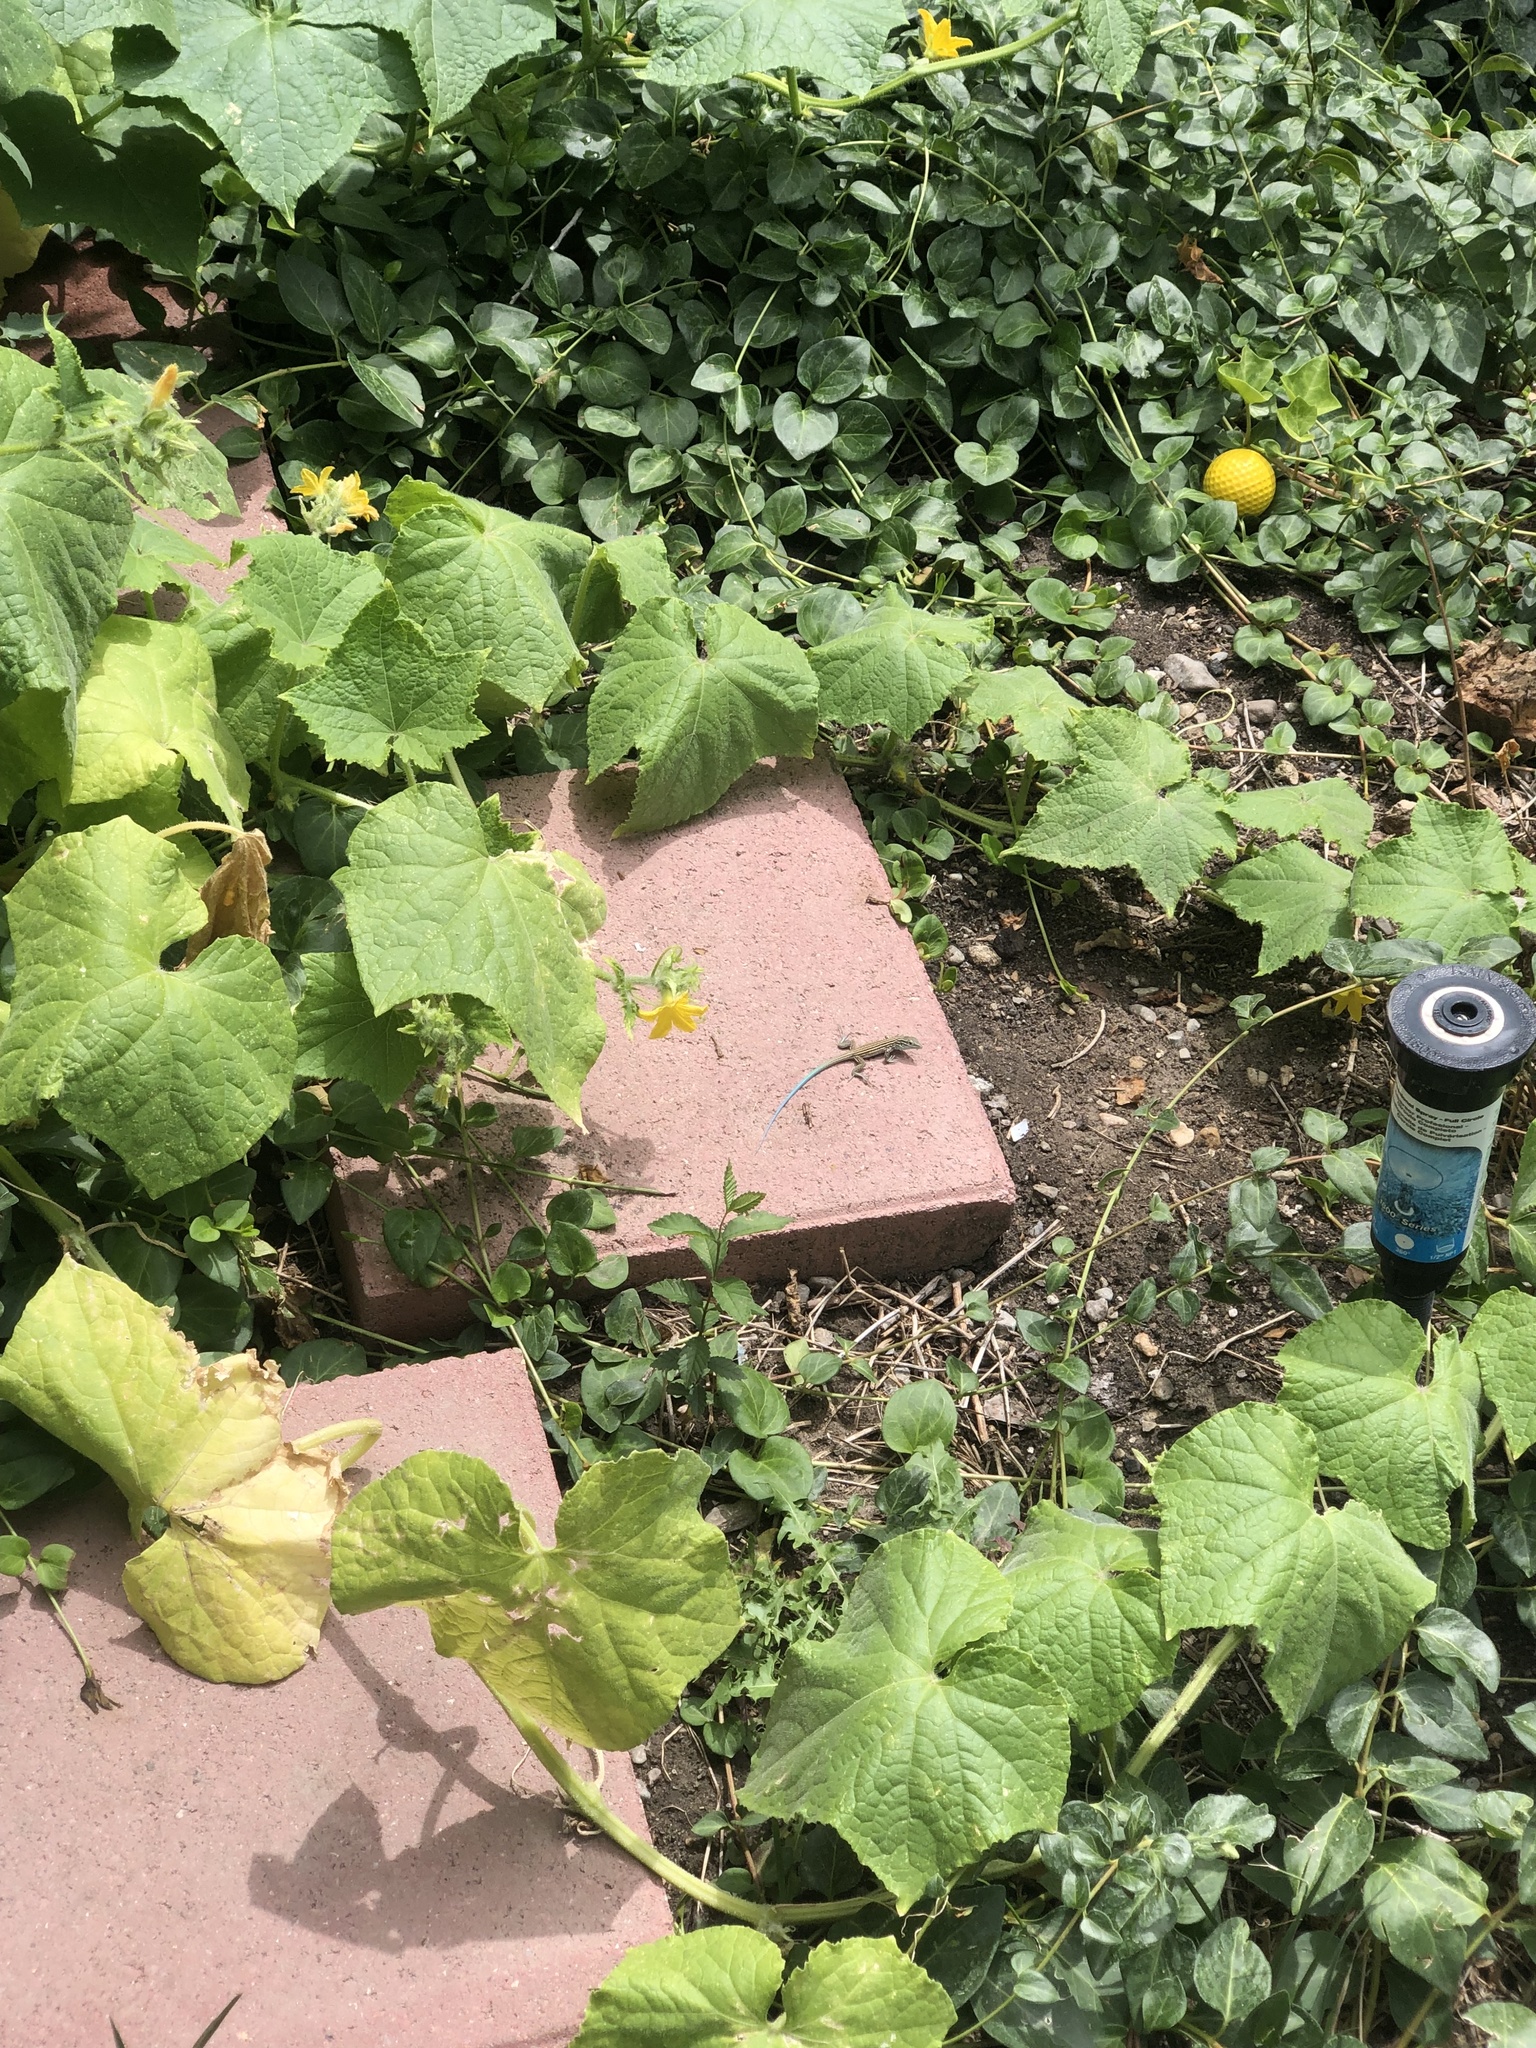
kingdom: Animalia
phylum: Chordata
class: Squamata
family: Teiidae
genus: Aspidoscelis
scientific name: Aspidoscelis neomexicanus
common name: New mexico whiptail
